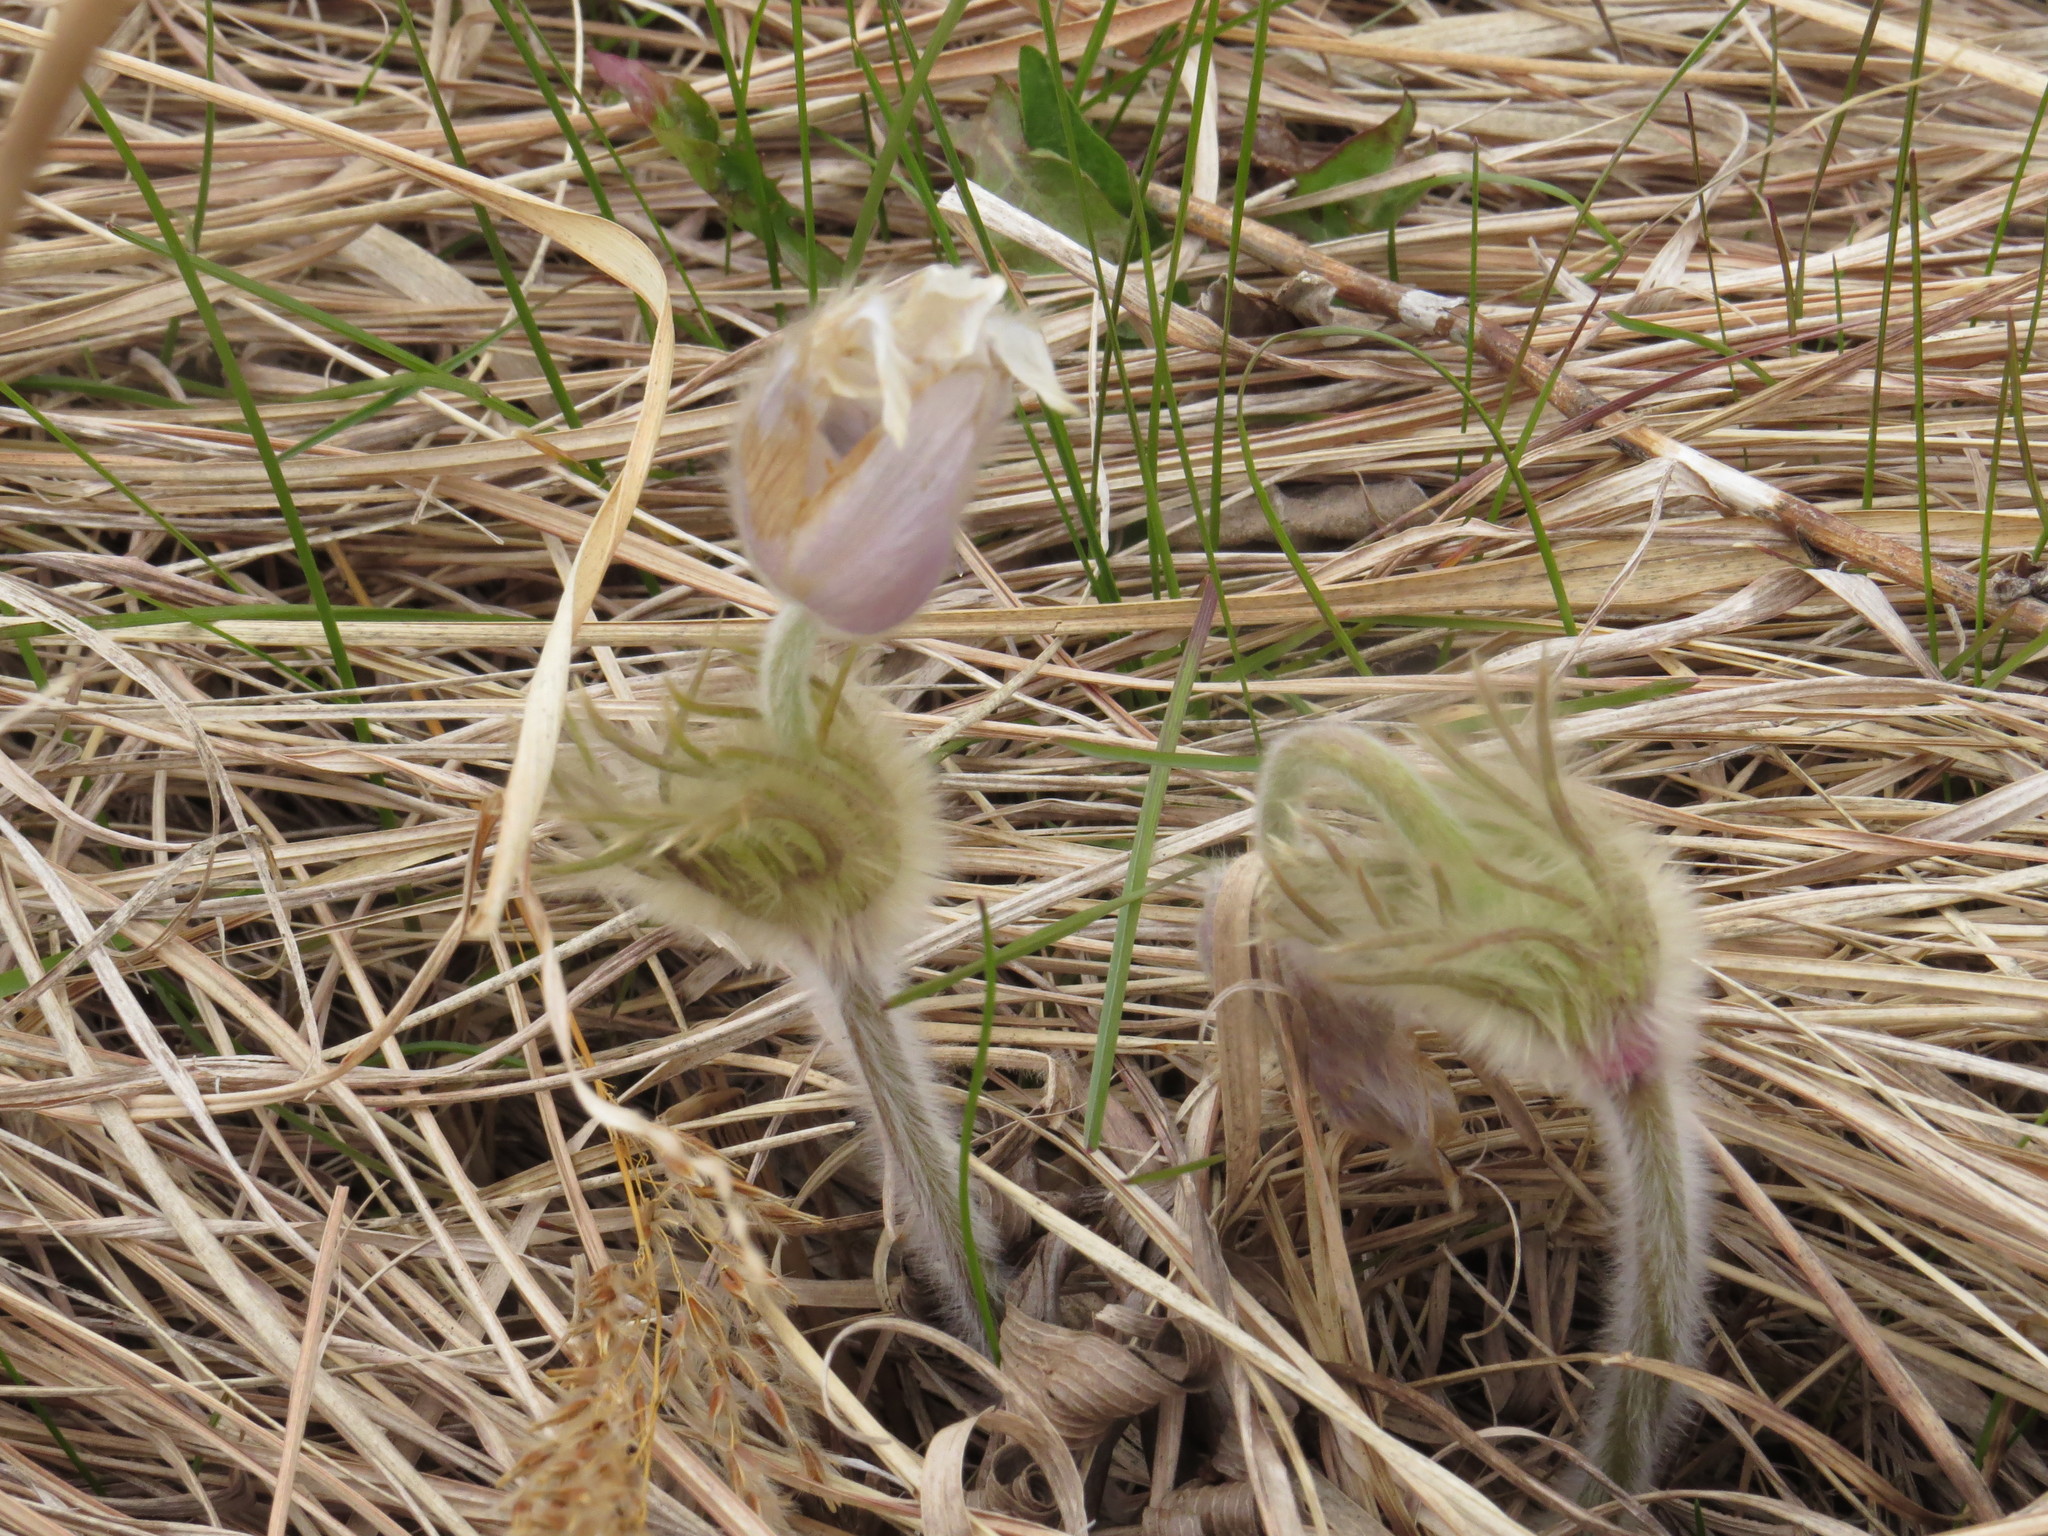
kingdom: Plantae
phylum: Tracheophyta
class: Magnoliopsida
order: Ranunculales
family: Ranunculaceae
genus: Pulsatilla
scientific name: Pulsatilla nuttalliana
